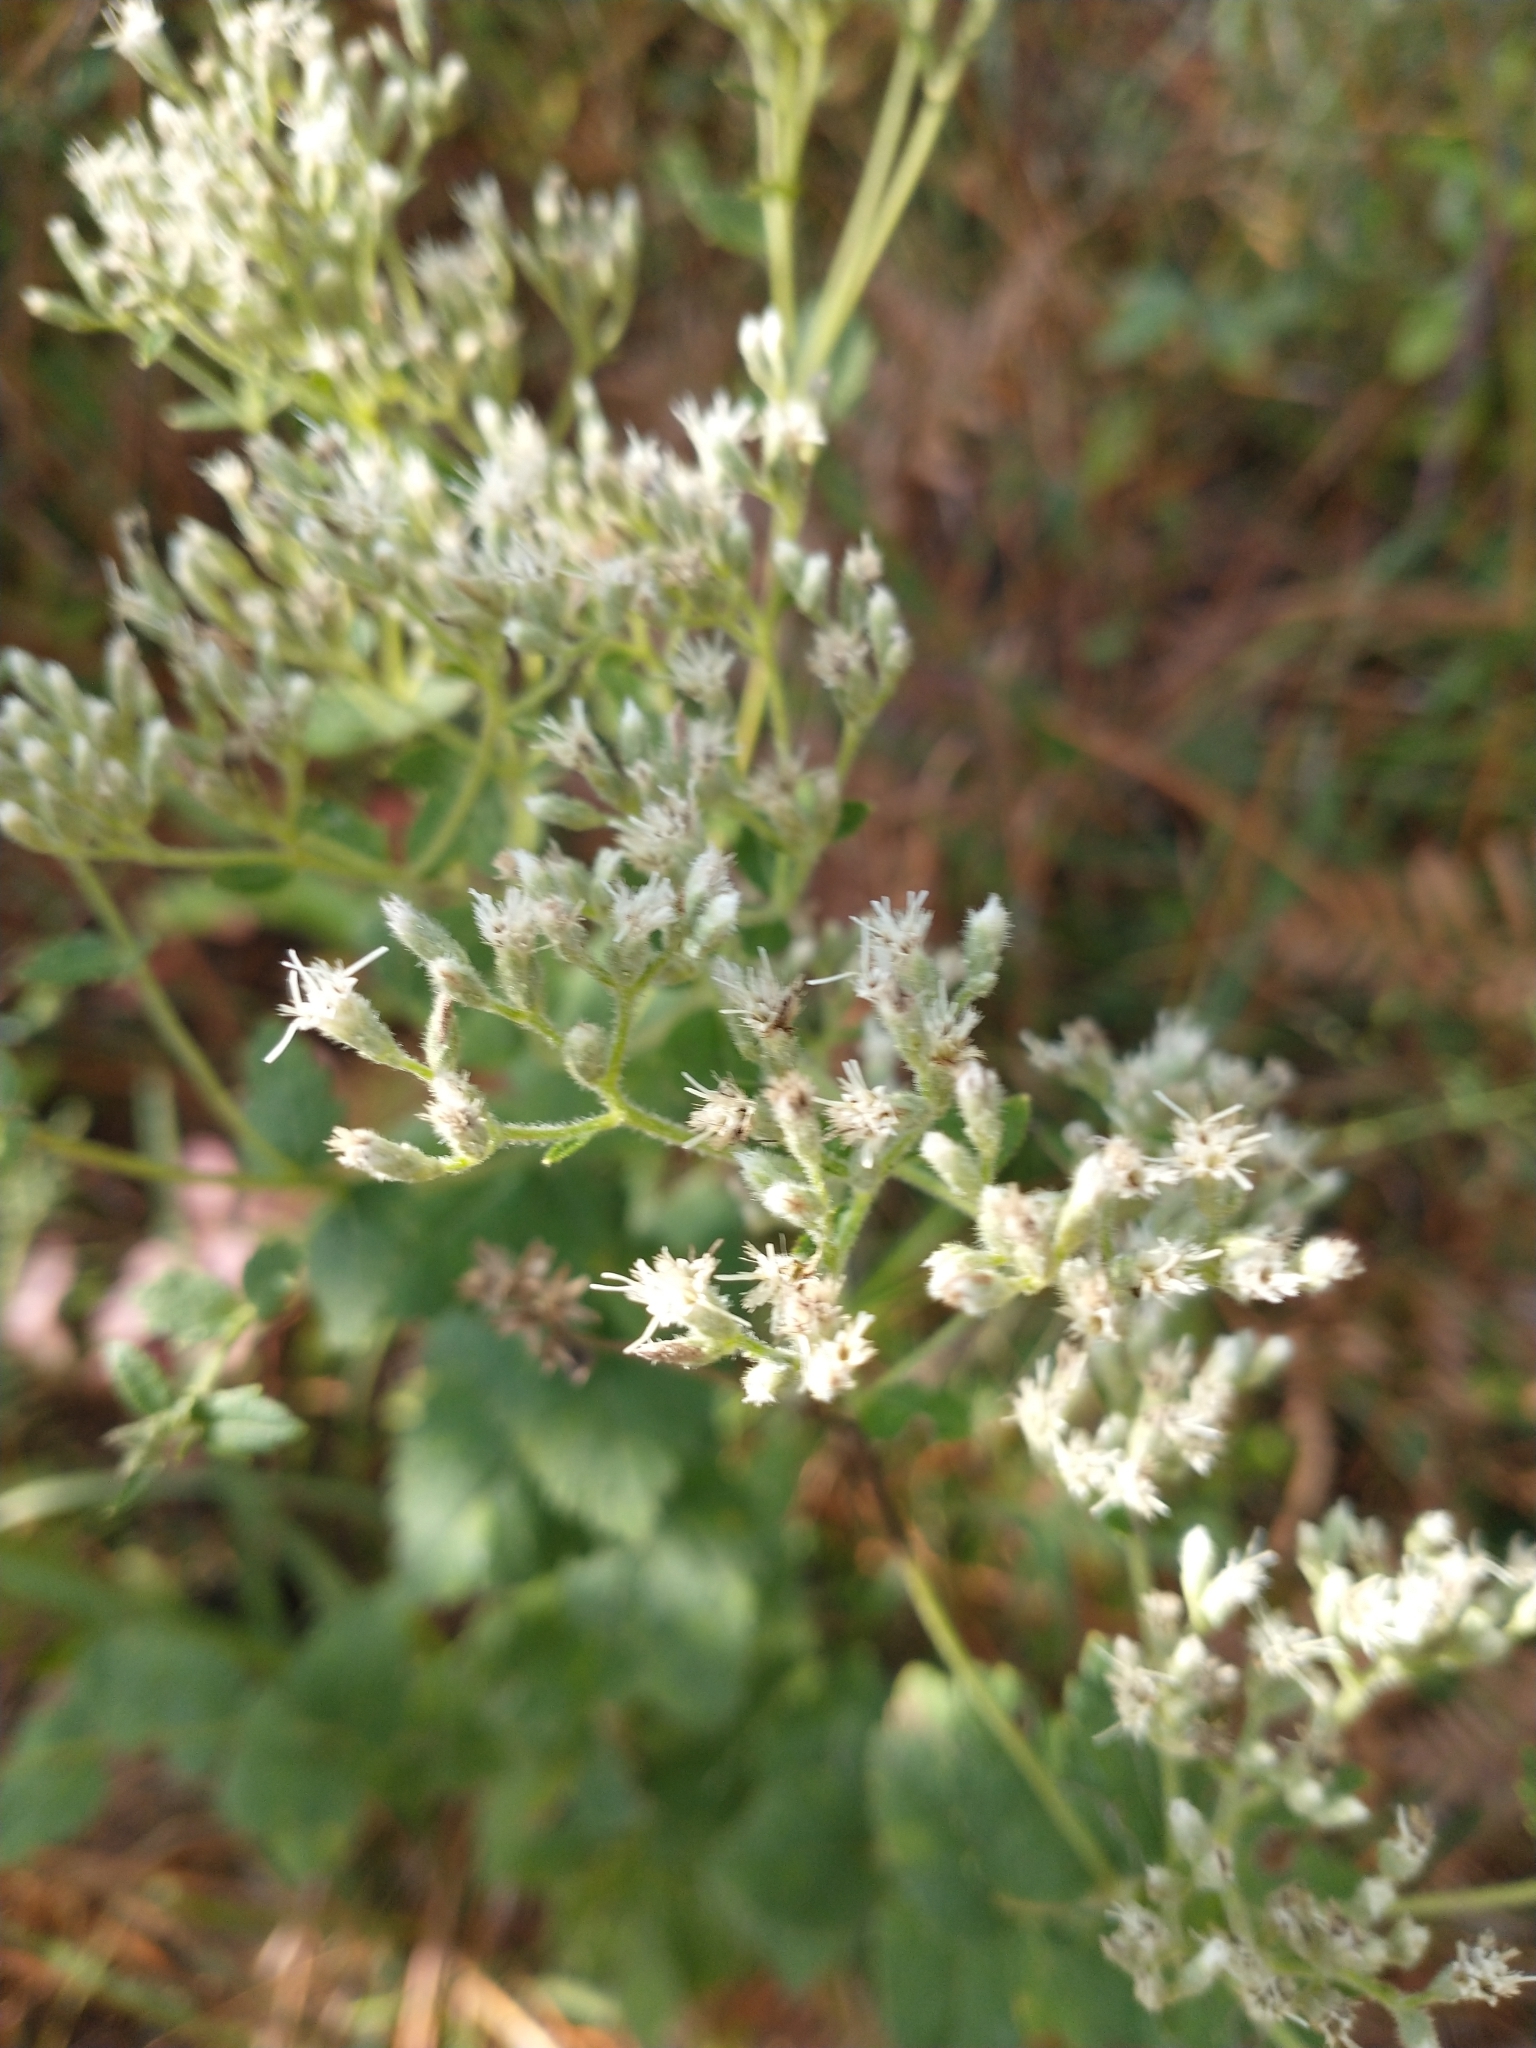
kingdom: Plantae
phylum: Tracheophyta
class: Magnoliopsida
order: Asterales
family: Asteraceae
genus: Eupatorium
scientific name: Eupatorium rotundifolium
